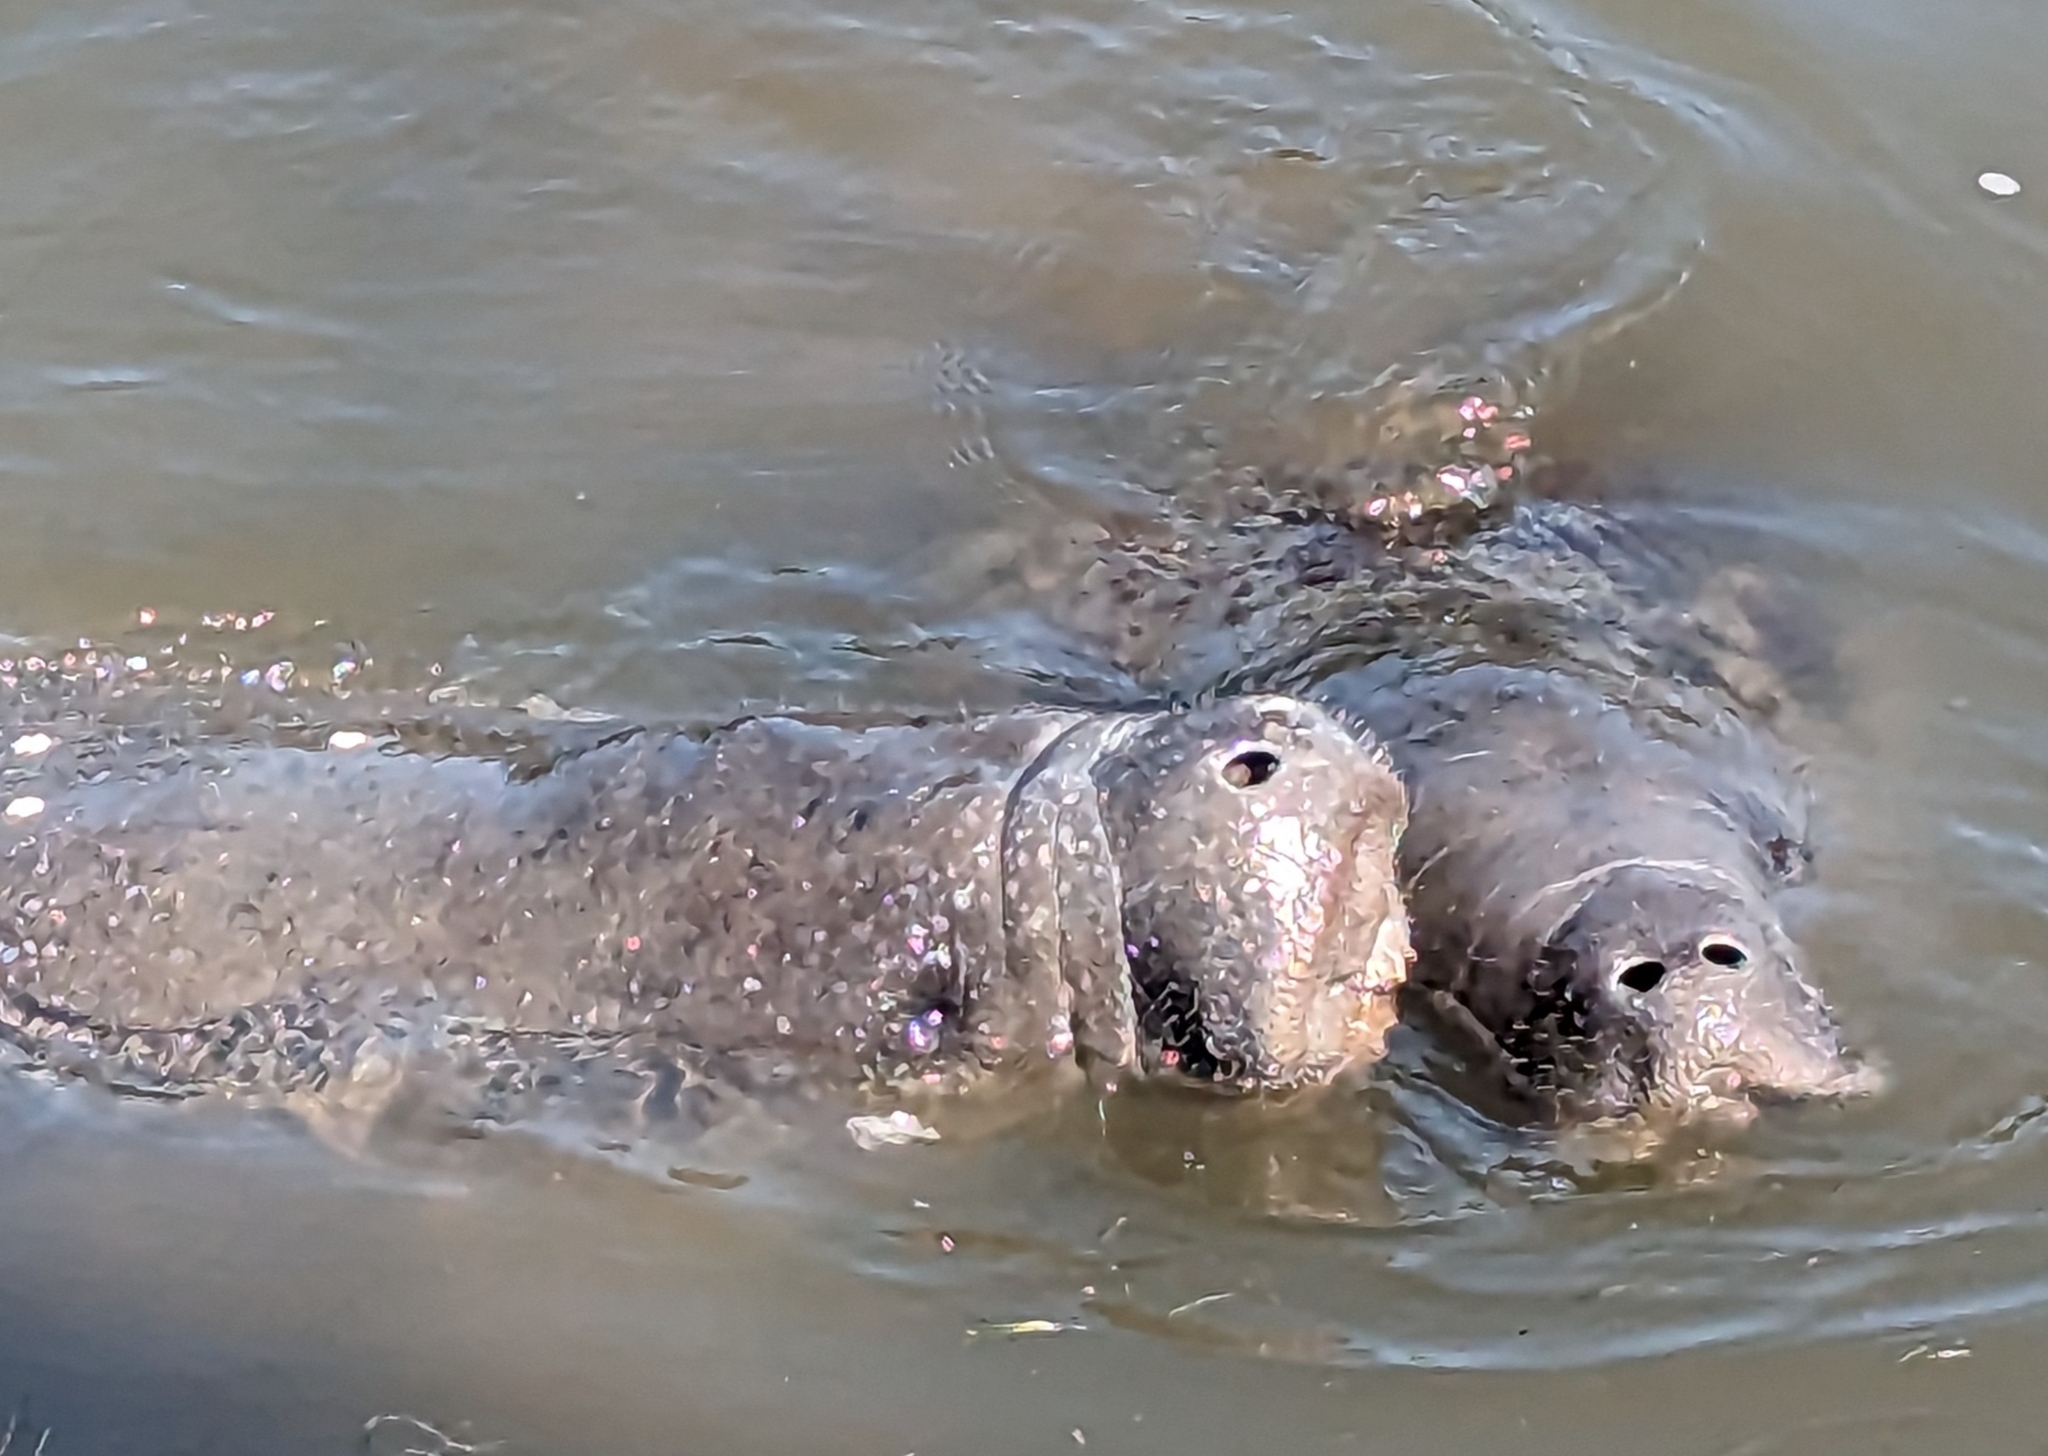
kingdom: Animalia
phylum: Chordata
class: Mammalia
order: Sirenia
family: Trichechidae
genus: Trichechus
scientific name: Trichechus manatus
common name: West indian manatee
